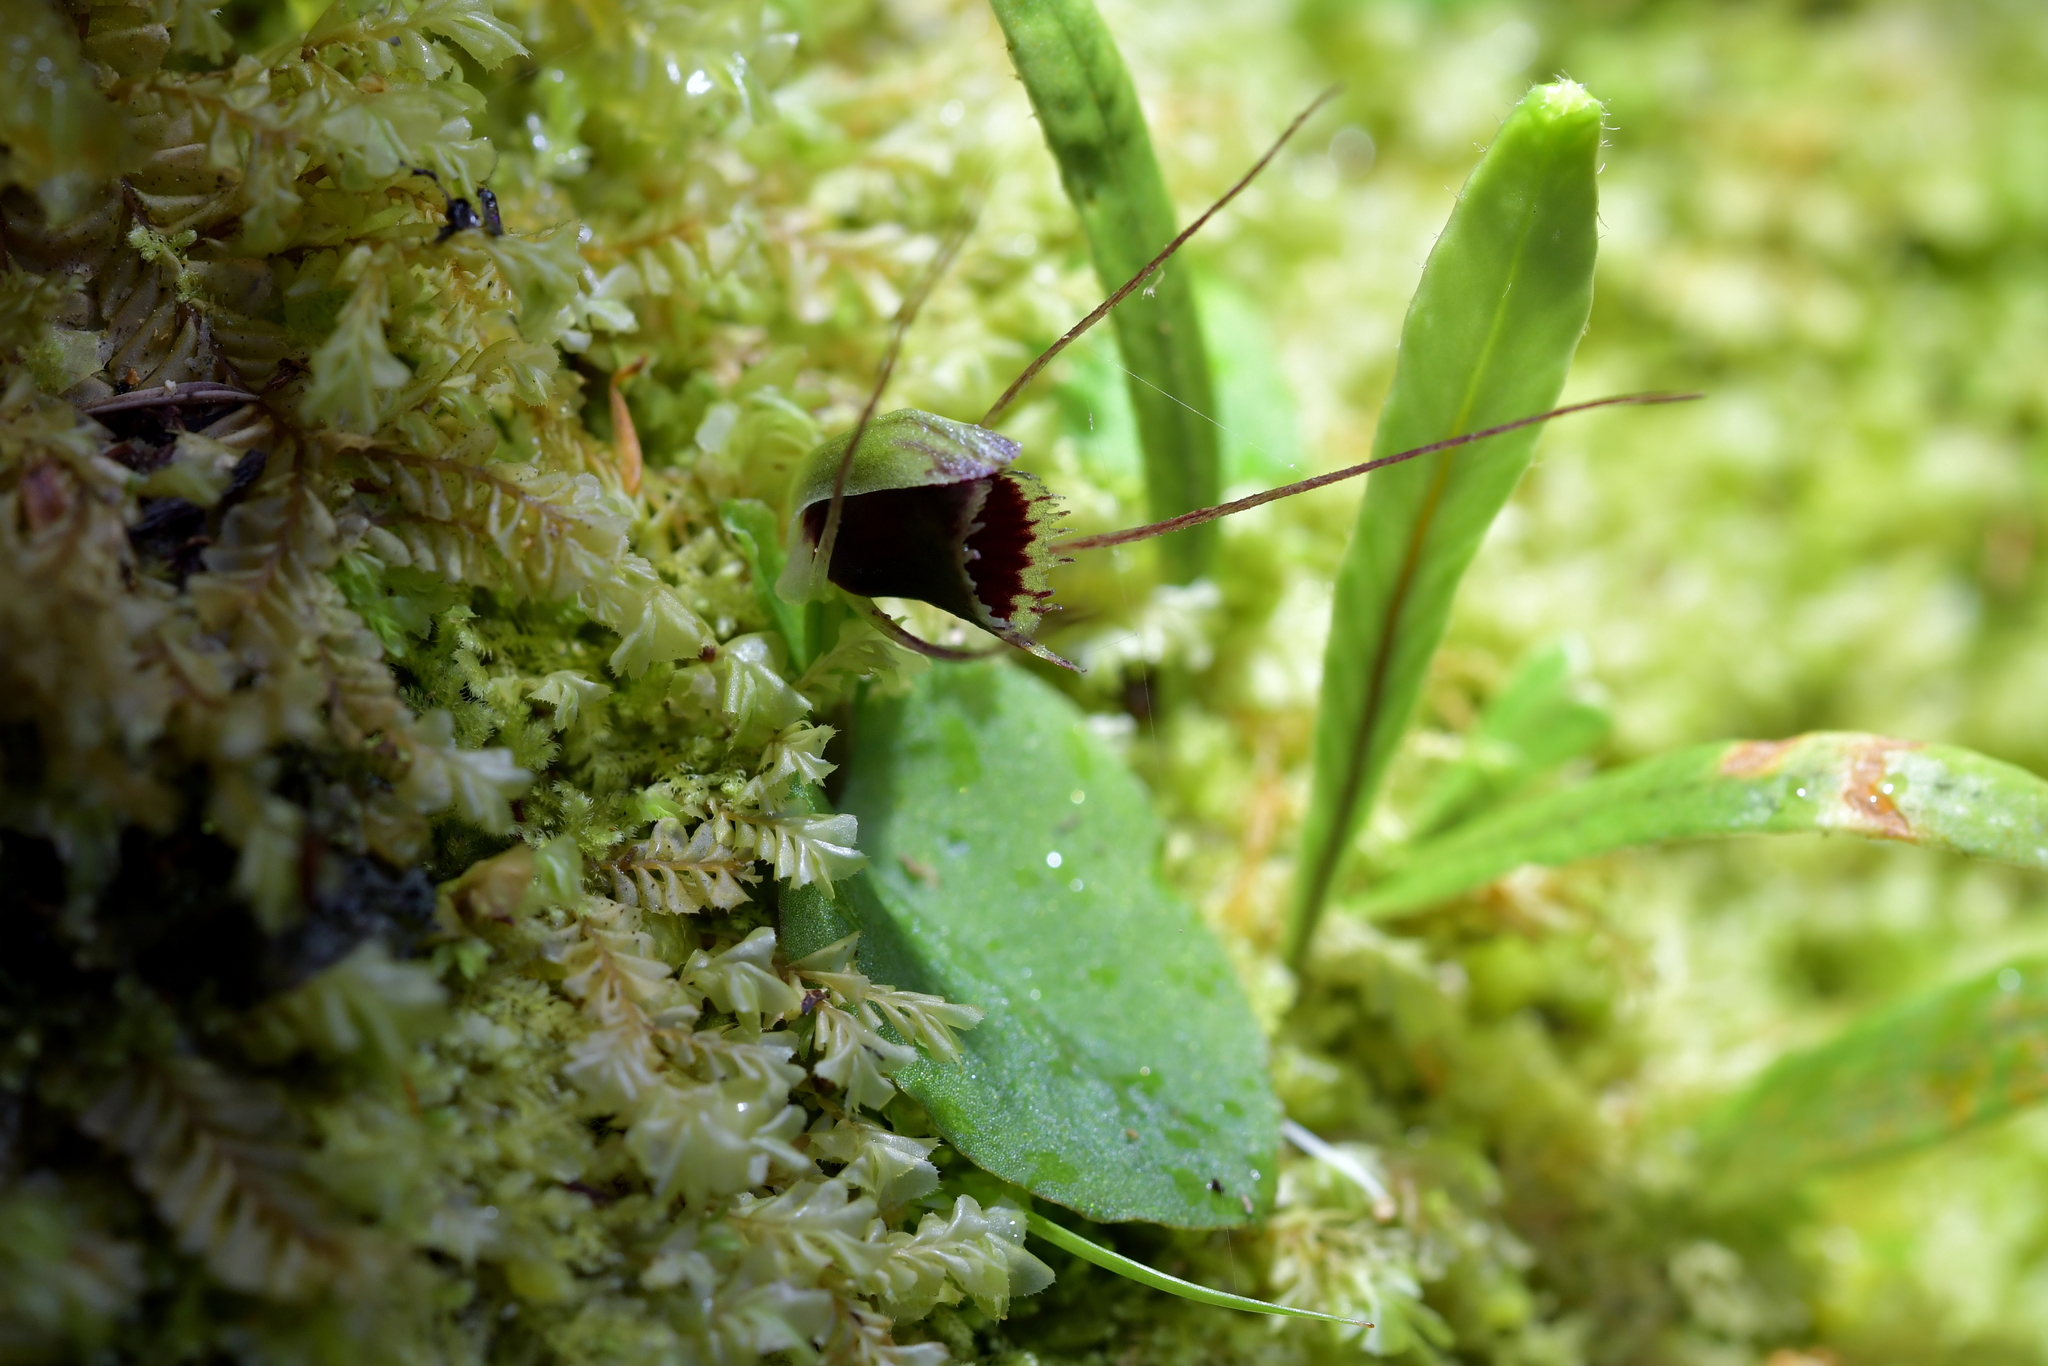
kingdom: Plantae
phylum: Tracheophyta
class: Liliopsida
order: Asparagales
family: Orchidaceae
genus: Corybas
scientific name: Corybas oblongus
